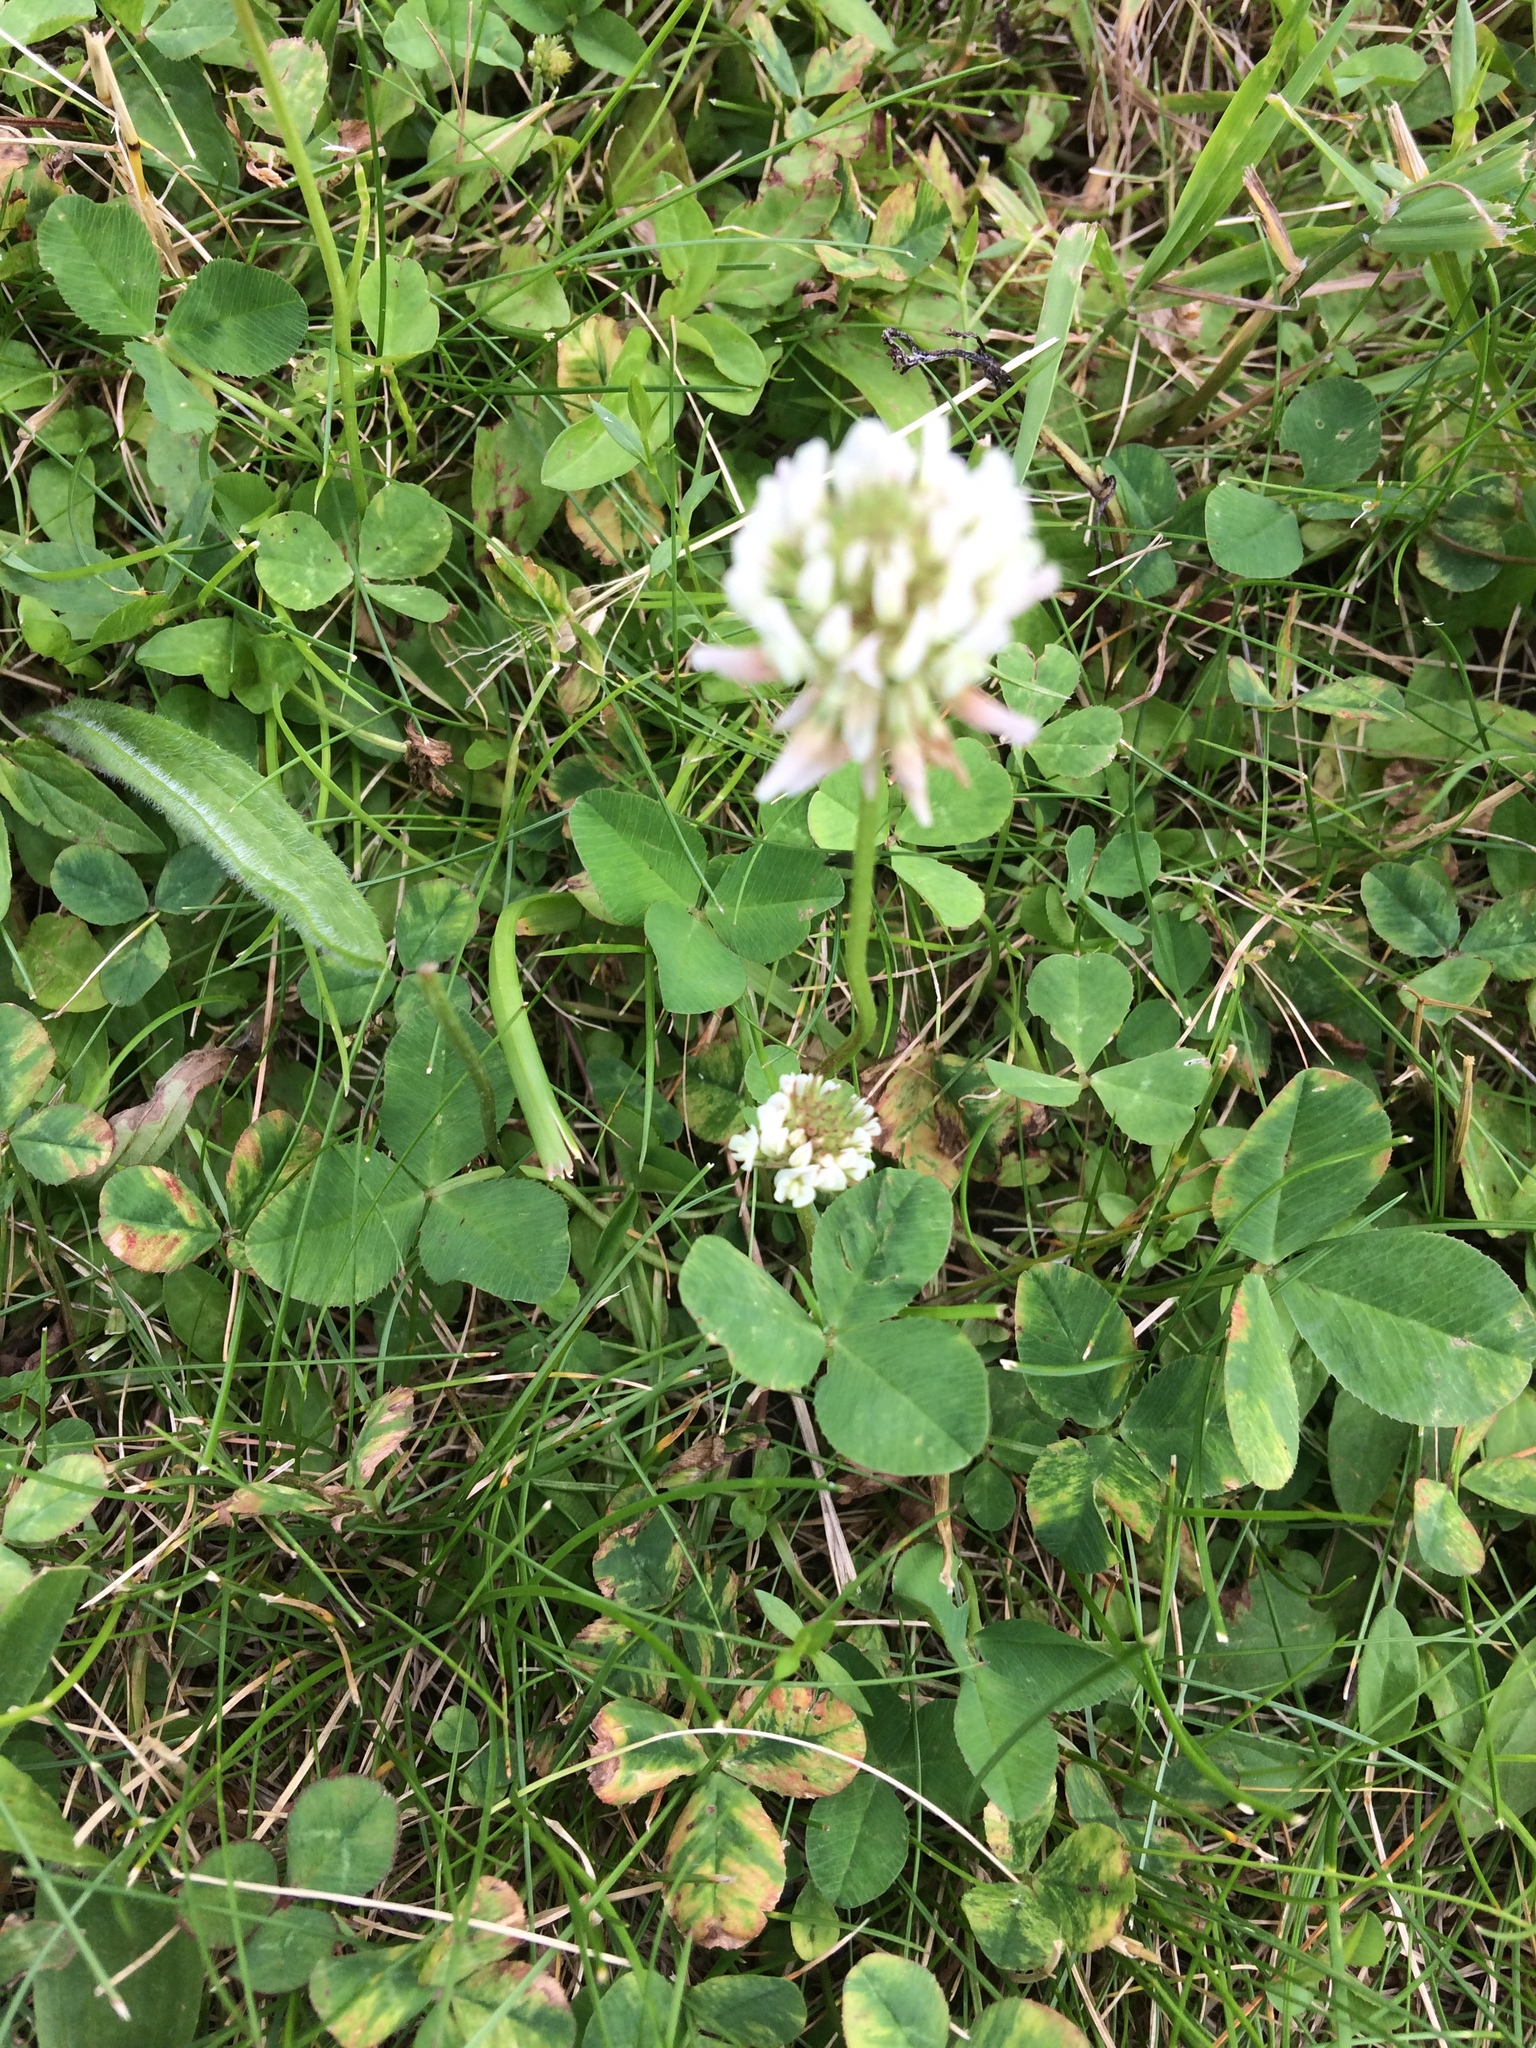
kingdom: Plantae
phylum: Tracheophyta
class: Magnoliopsida
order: Fabales
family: Fabaceae
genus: Trifolium
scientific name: Trifolium repens
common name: White clover
